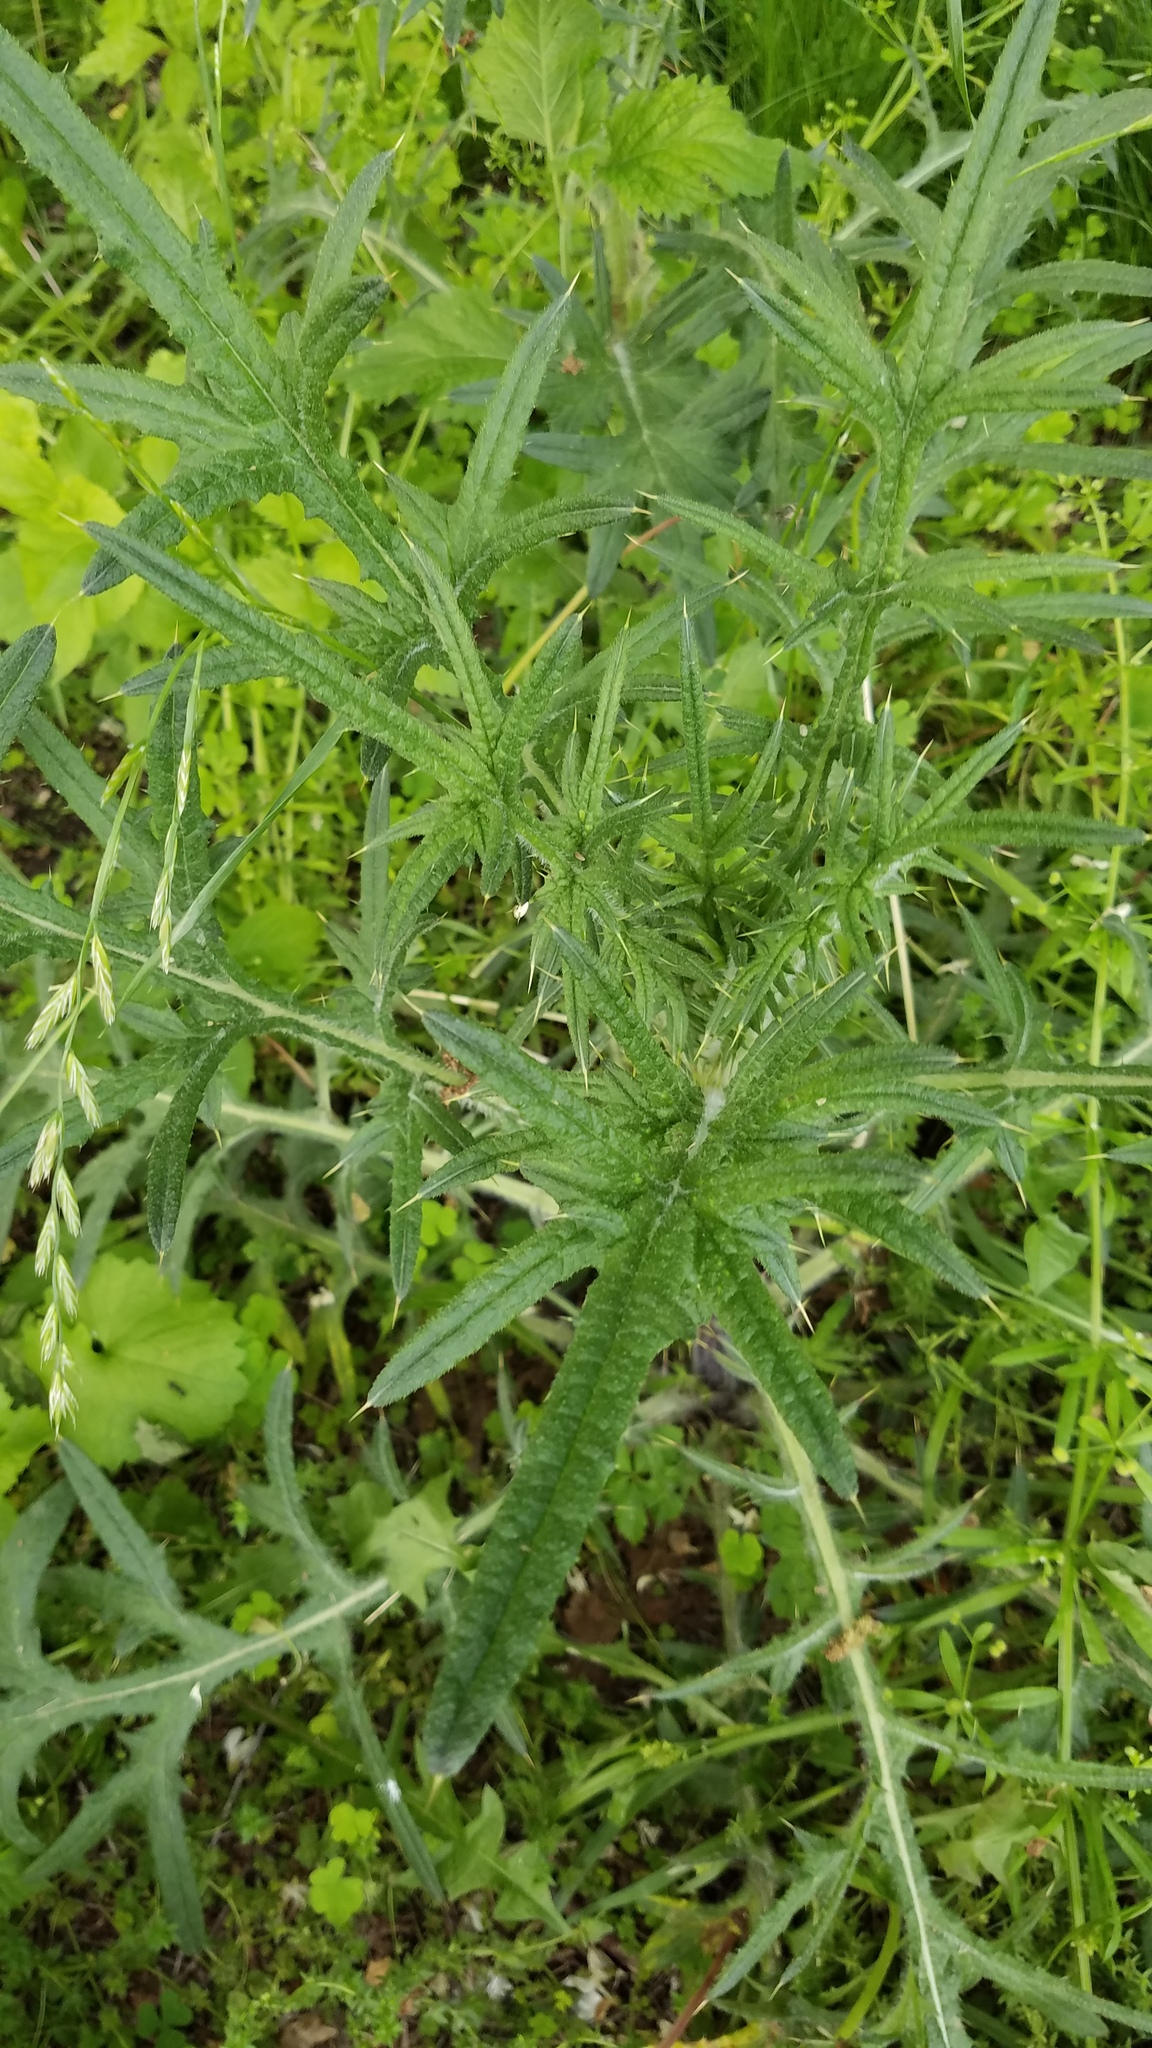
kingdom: Plantae
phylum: Tracheophyta
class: Magnoliopsida
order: Asterales
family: Asteraceae
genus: Cirsium
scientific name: Cirsium vulgare
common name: Bull thistle
